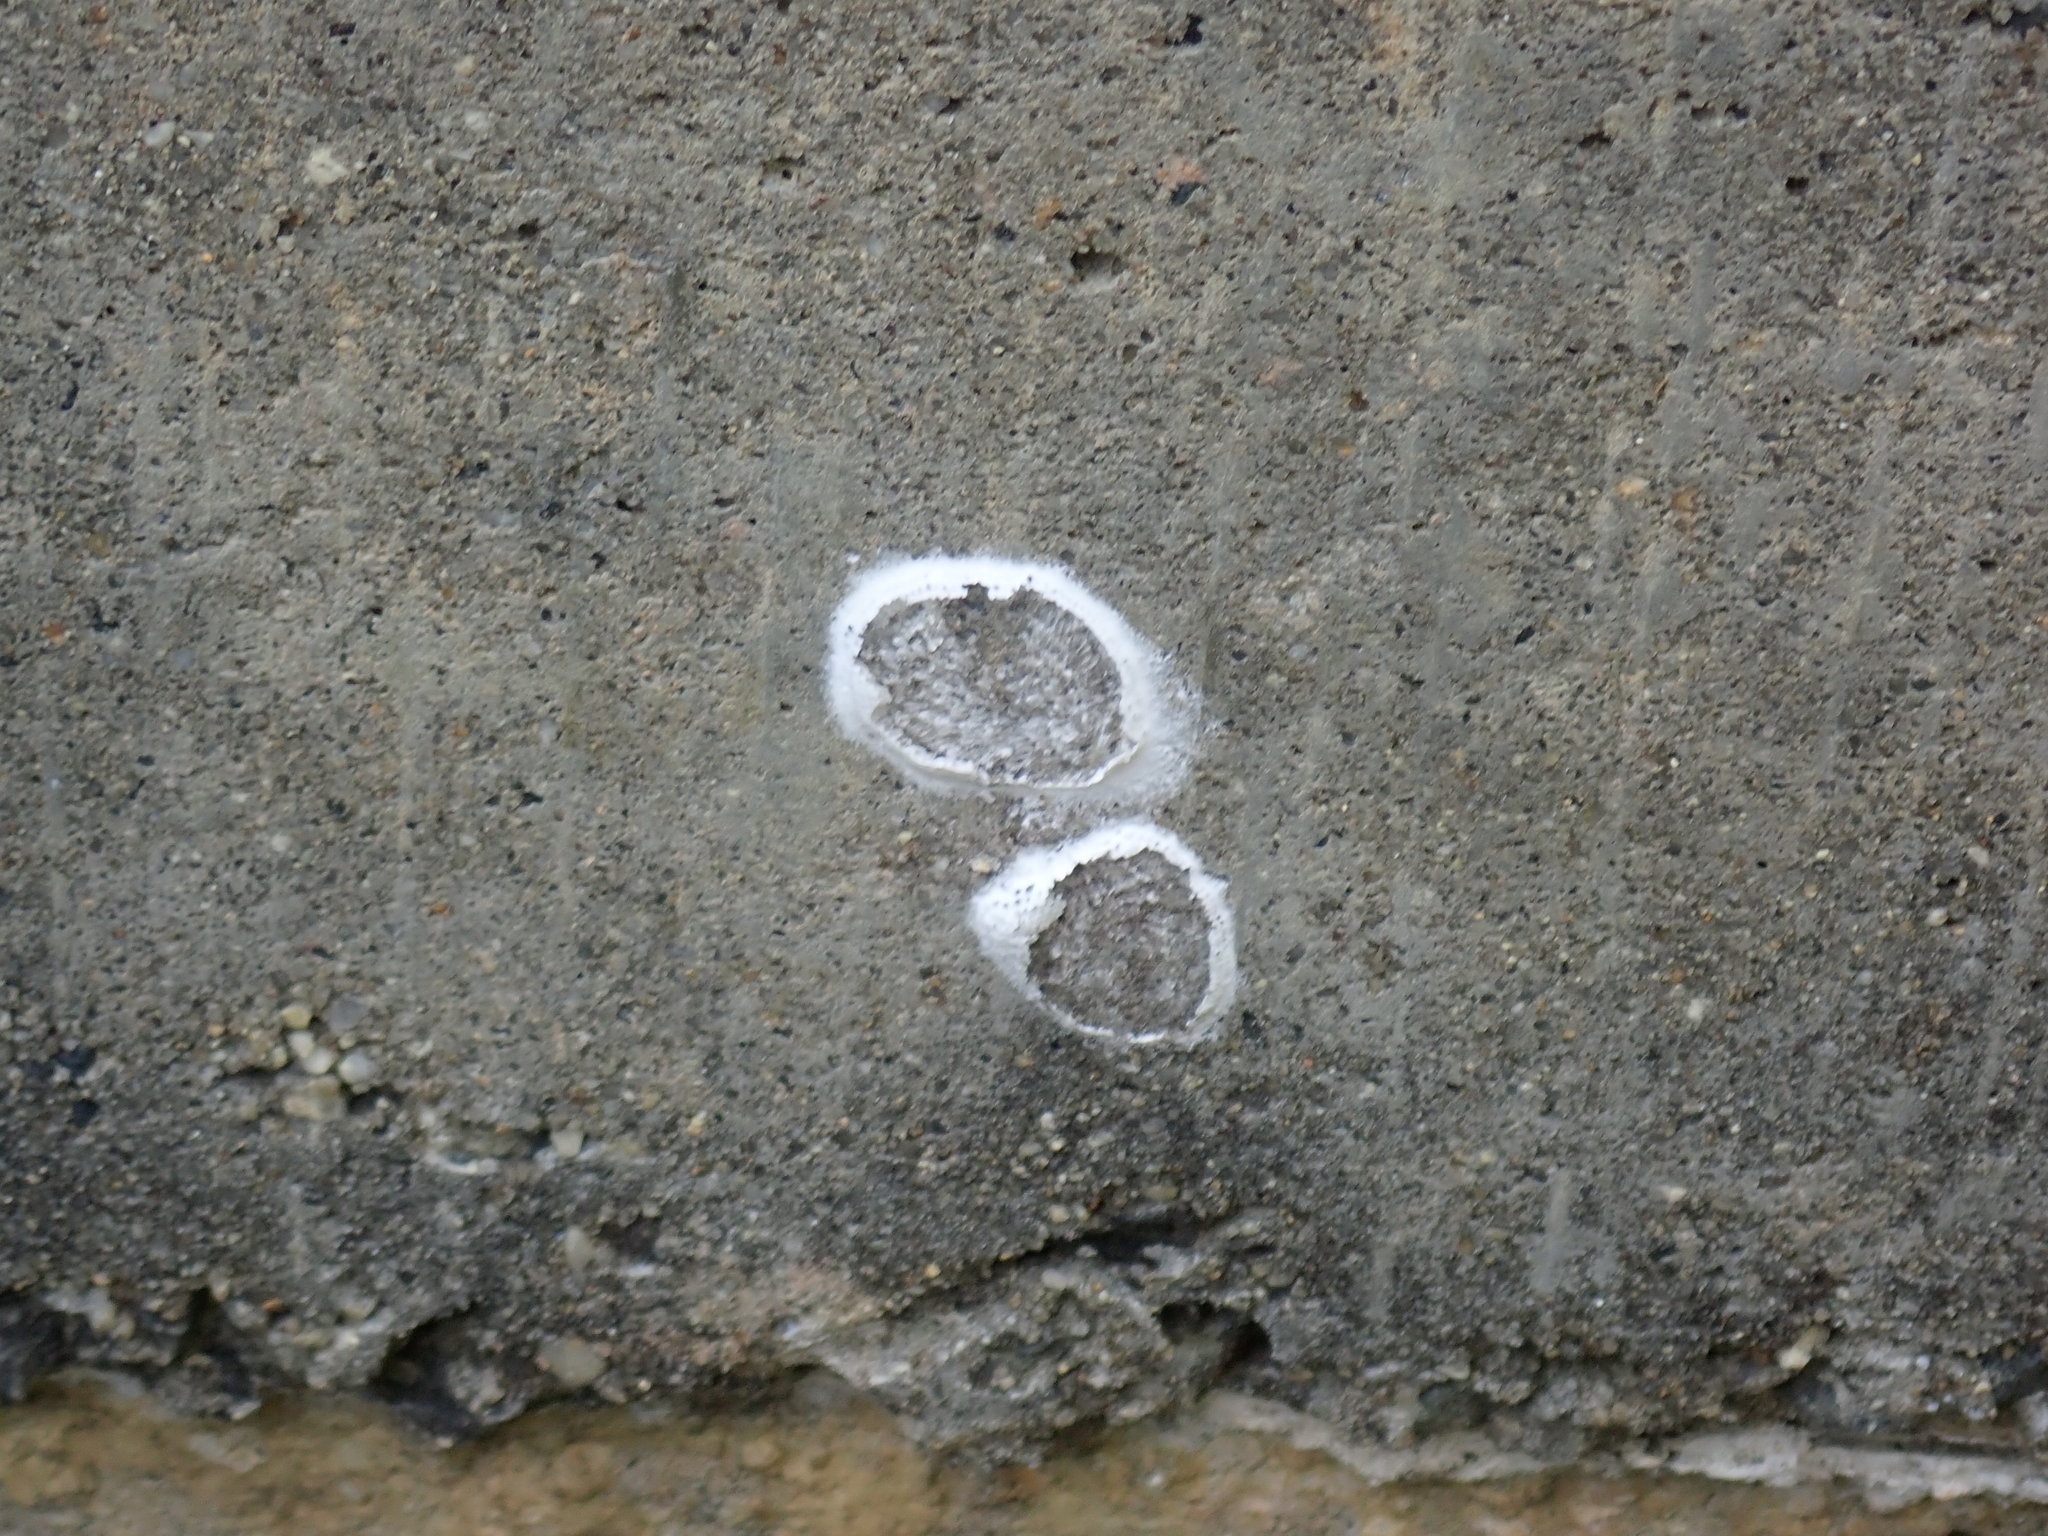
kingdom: Animalia
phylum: Arthropoda
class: Insecta
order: Megaloptera
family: Corydalidae
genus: Corydalus
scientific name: Corydalus cornutus
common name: Dobsonfly
